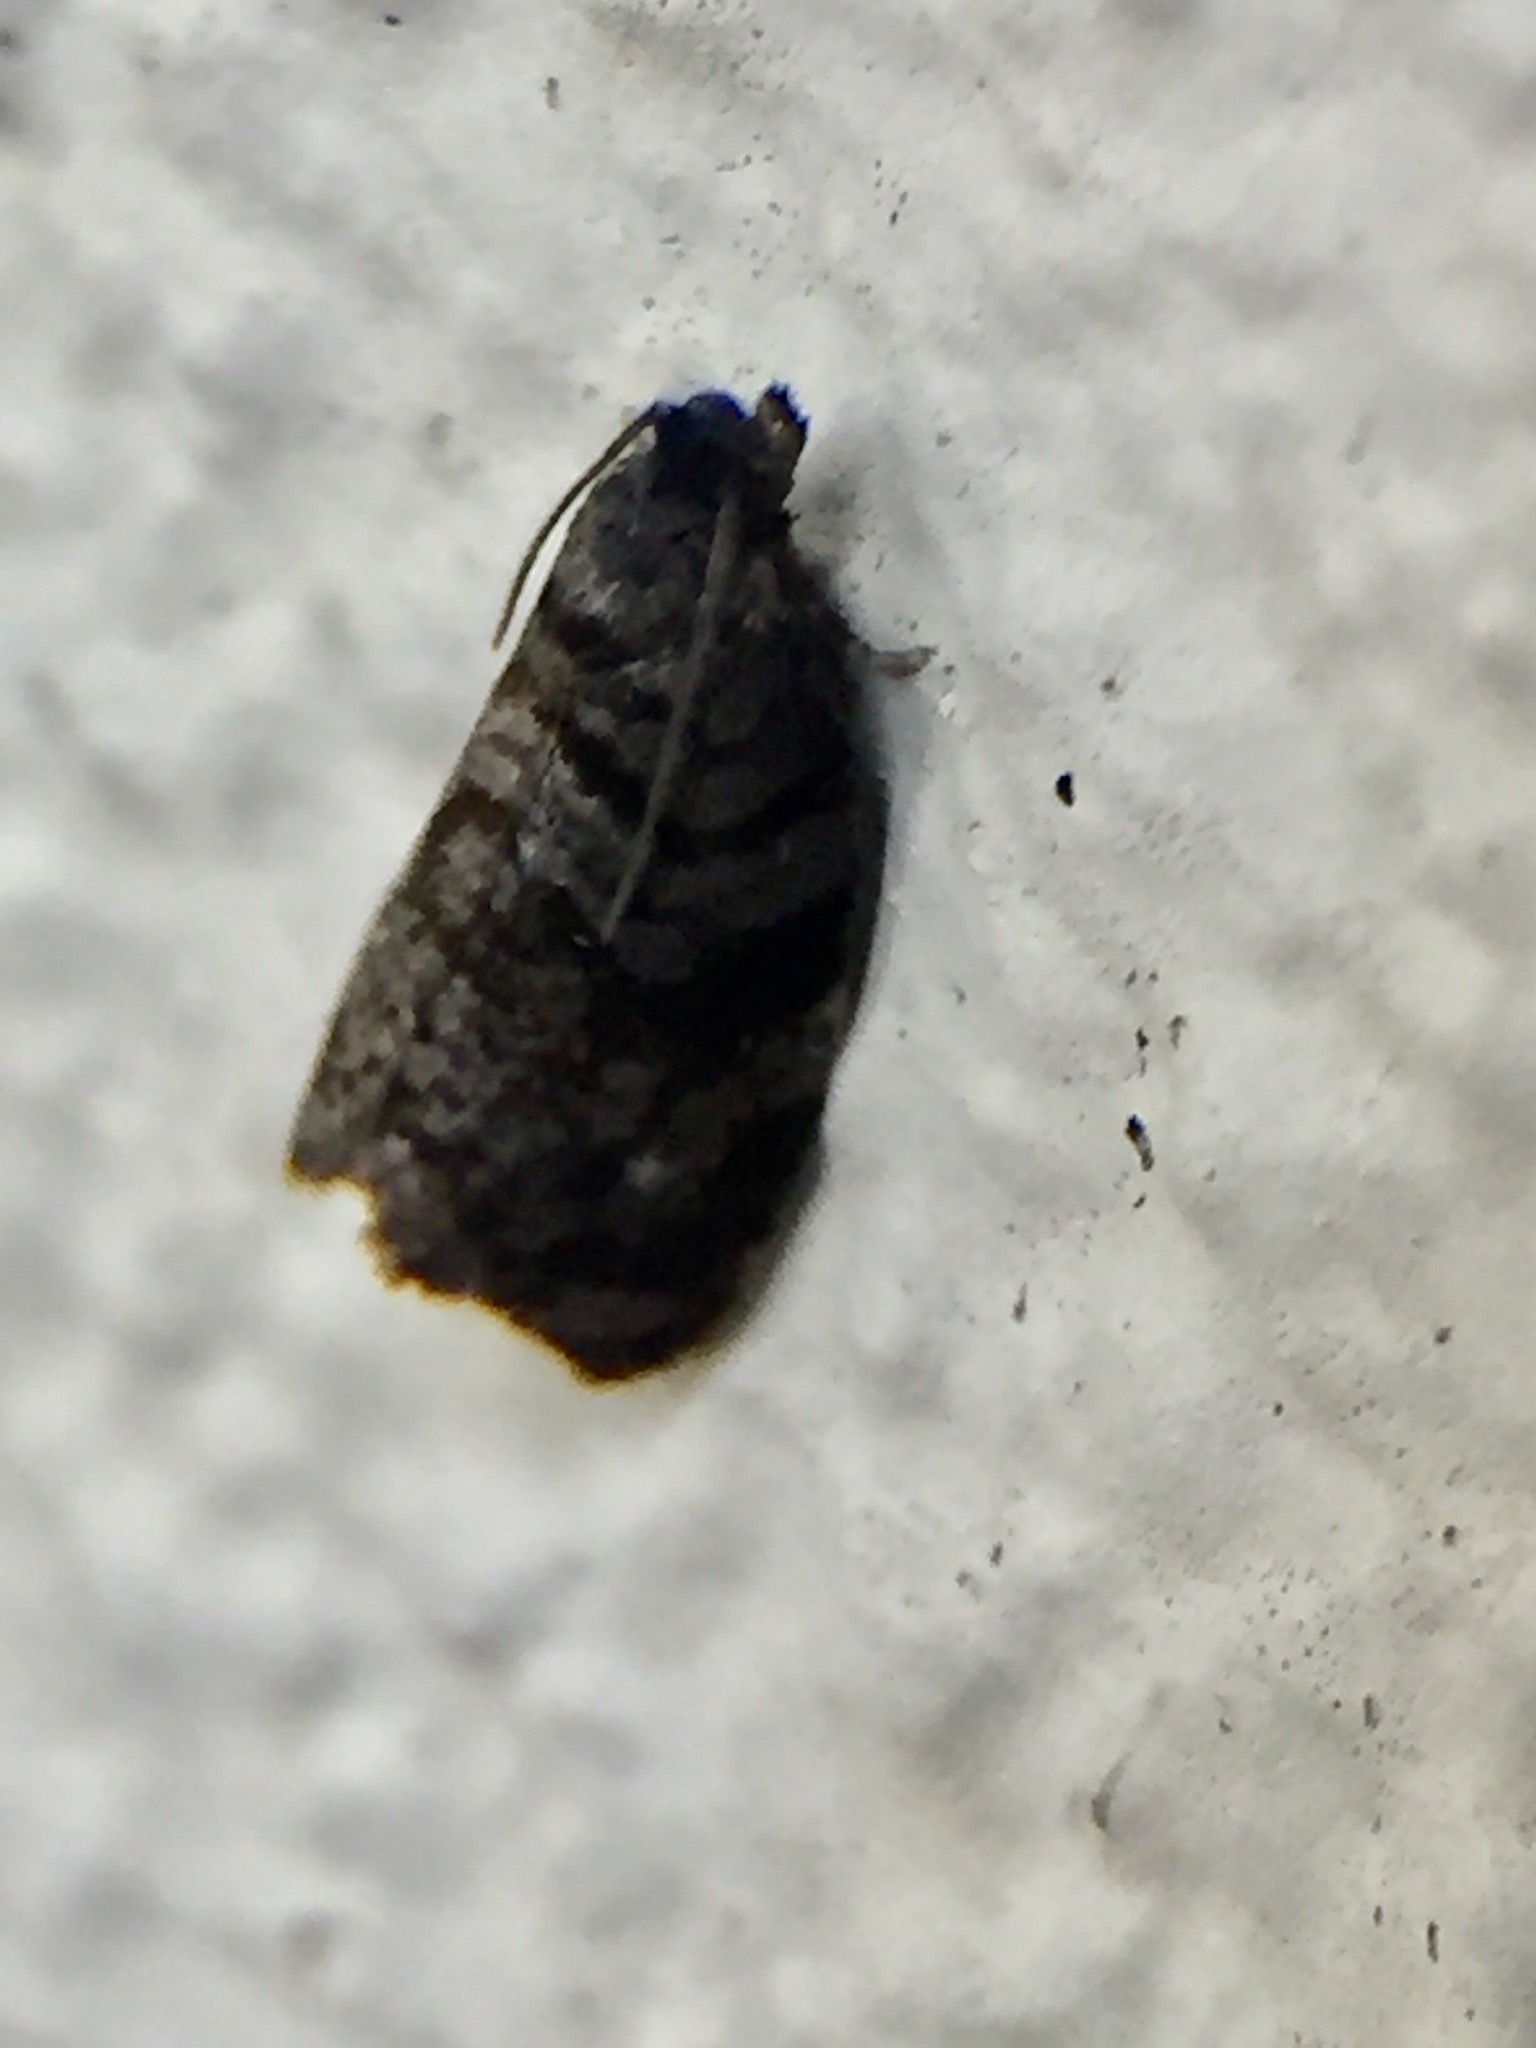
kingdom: Animalia
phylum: Arthropoda
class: Insecta
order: Lepidoptera
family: Tortricidae
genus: Ecclitica
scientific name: Ecclitica hemiclista
